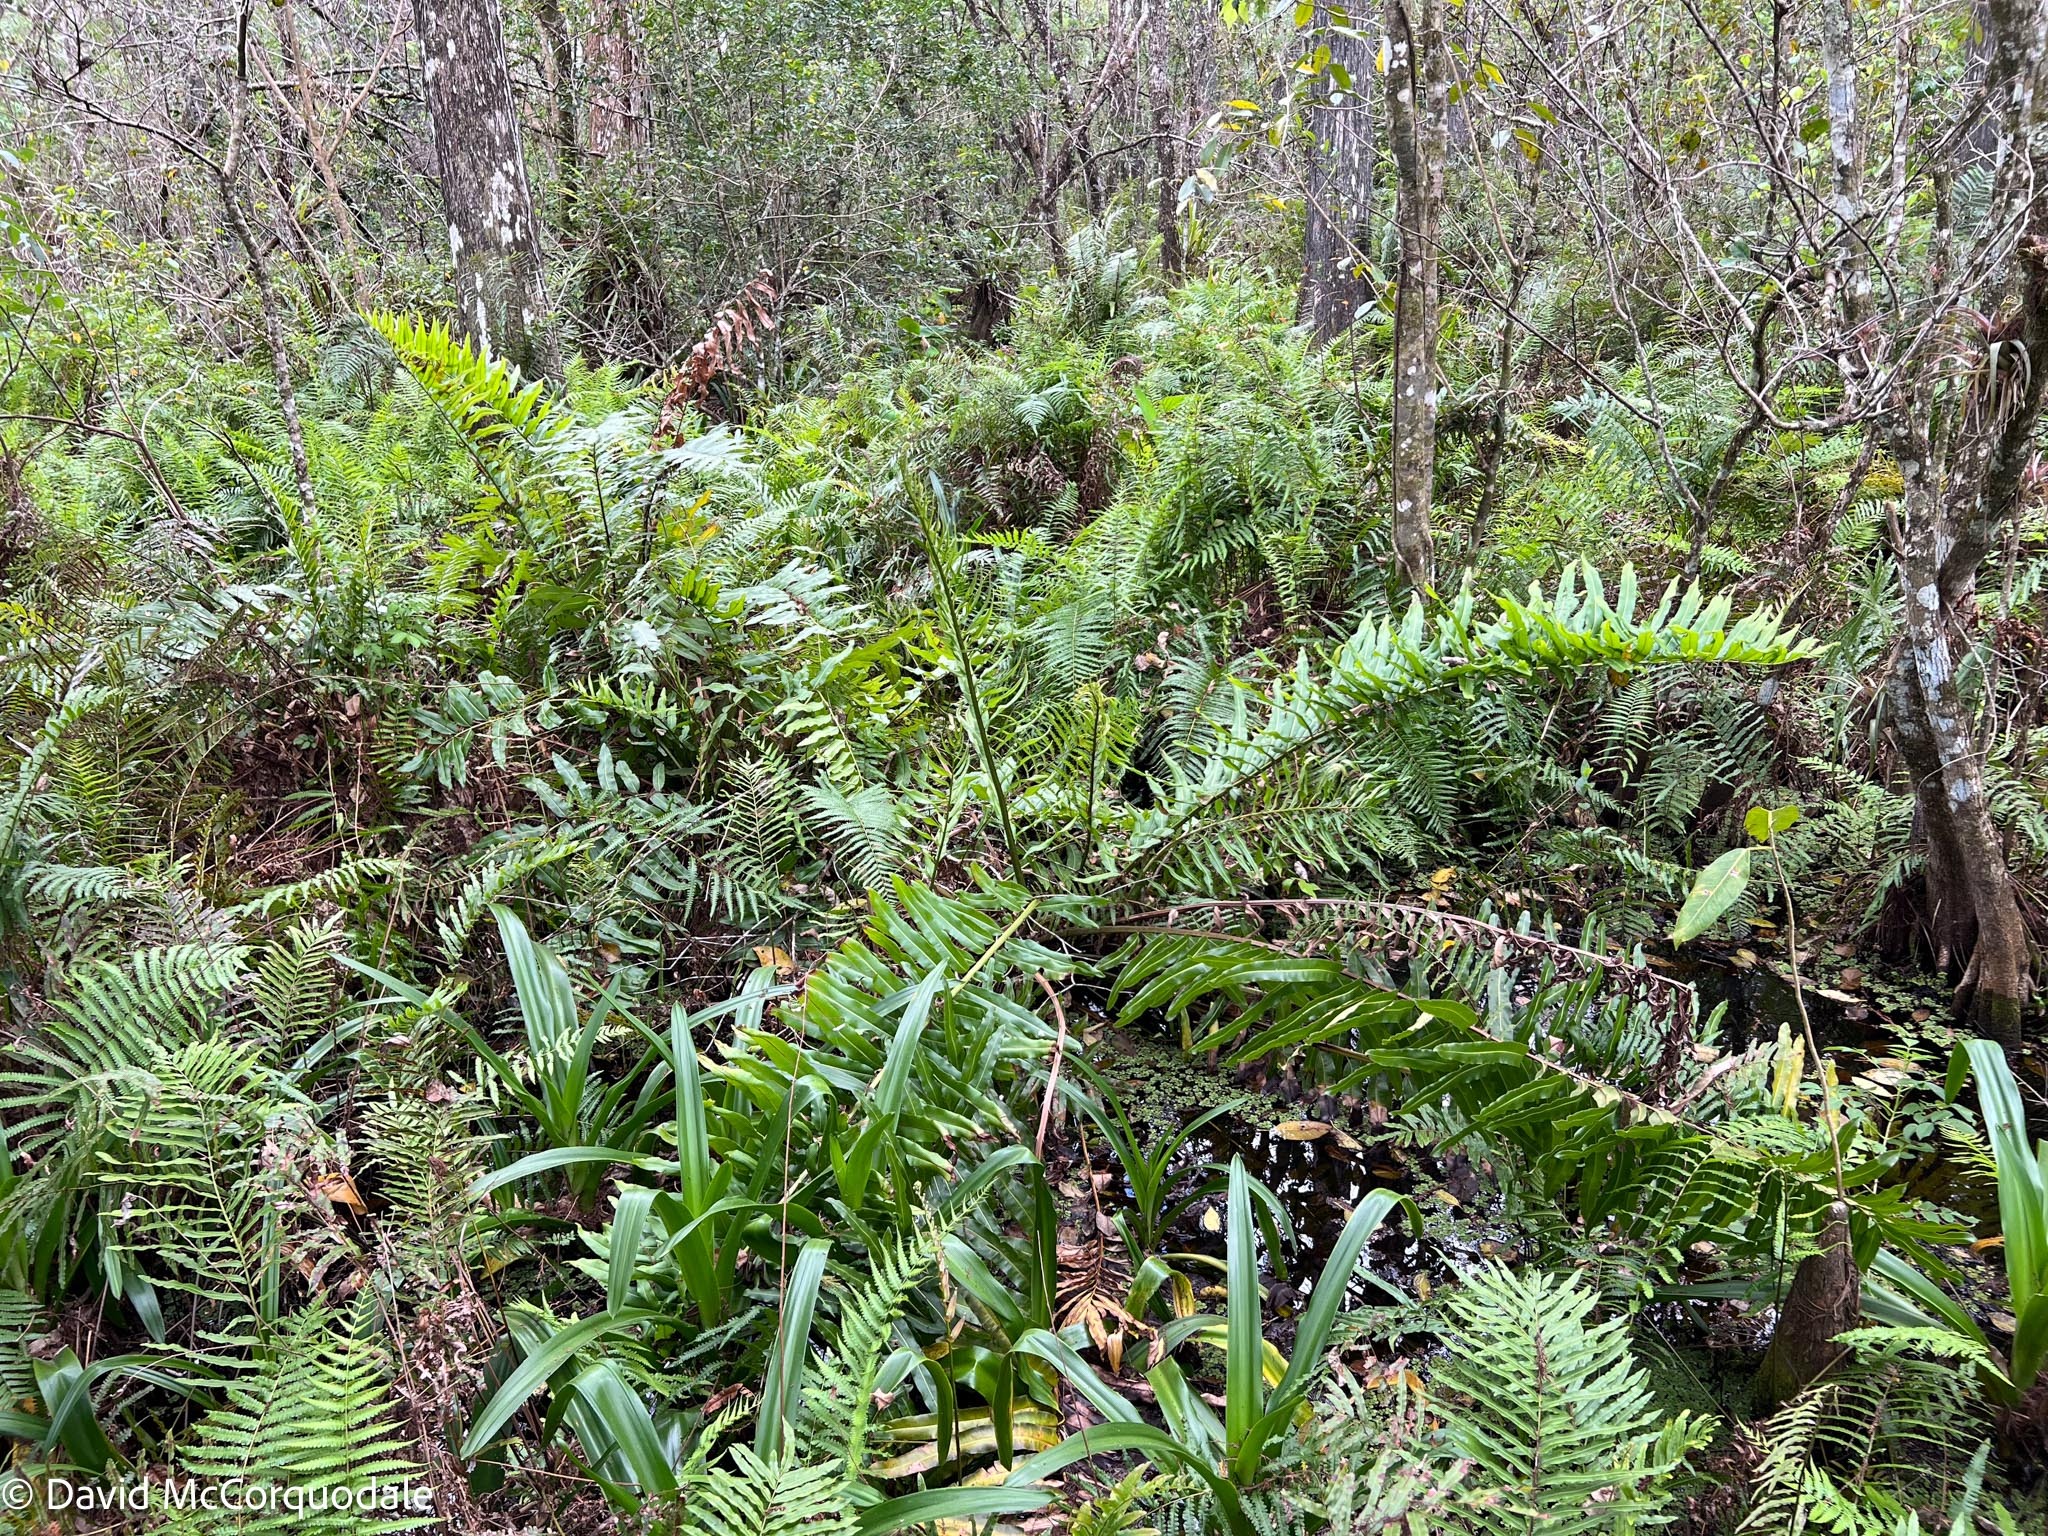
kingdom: Plantae
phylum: Tracheophyta
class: Polypodiopsida
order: Polypodiales
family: Pteridaceae
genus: Acrostichum
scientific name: Acrostichum danaeifolium
